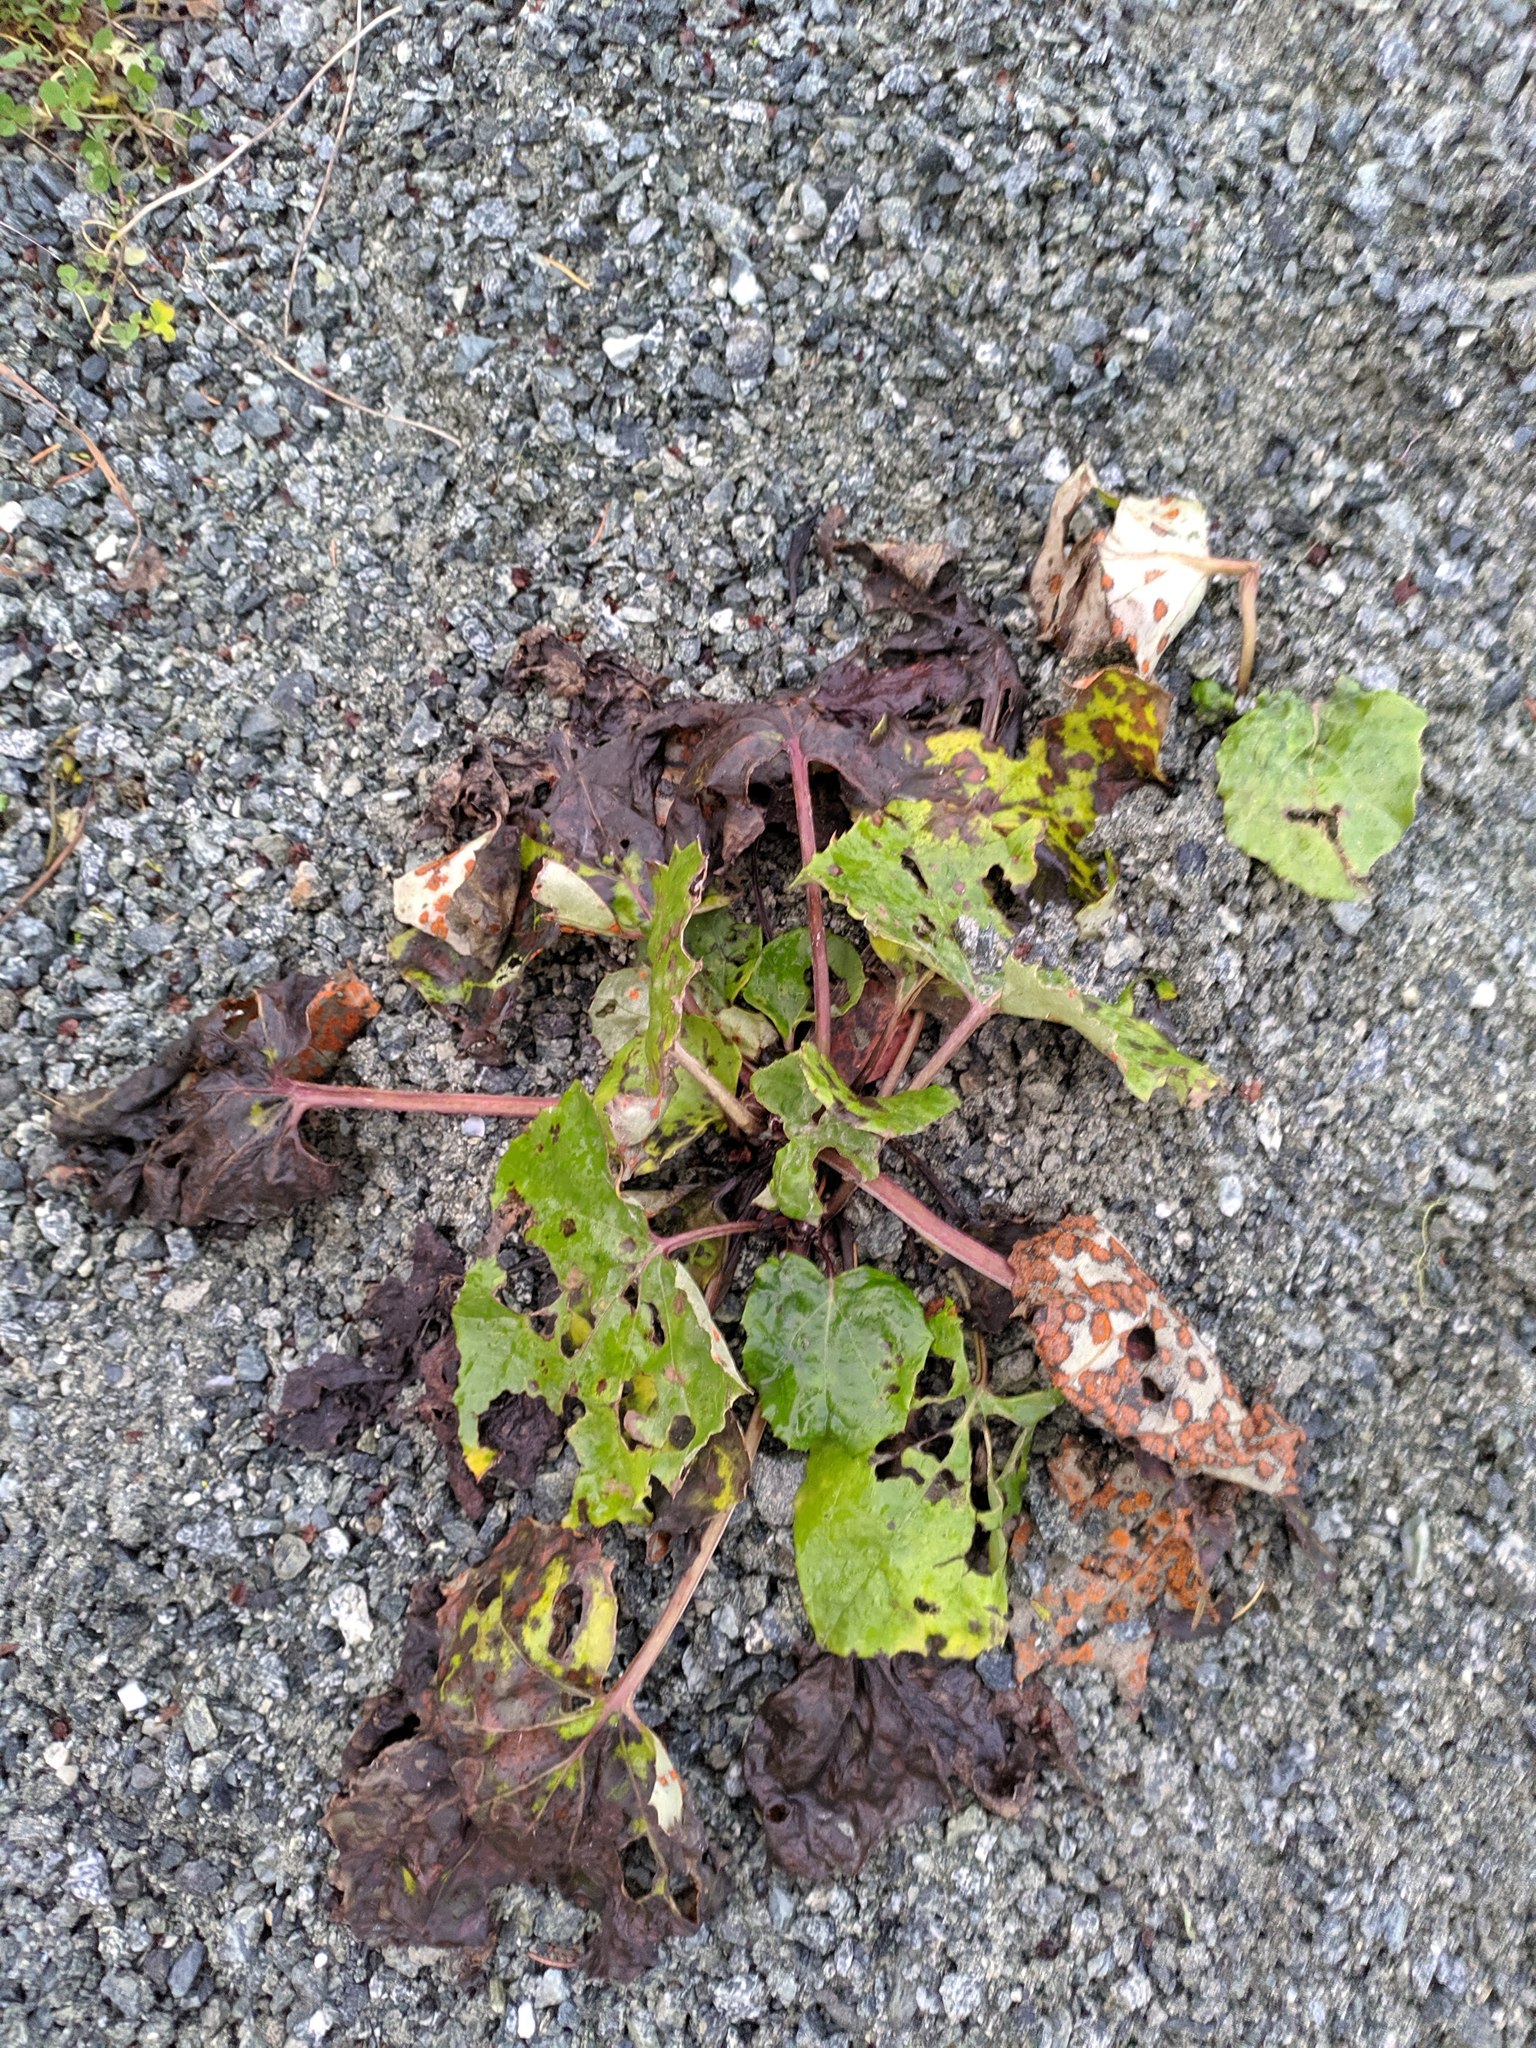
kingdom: Plantae
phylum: Tracheophyta
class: Magnoliopsida
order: Asterales
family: Asteraceae
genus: Tussilago
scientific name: Tussilago farfara
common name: Coltsfoot
